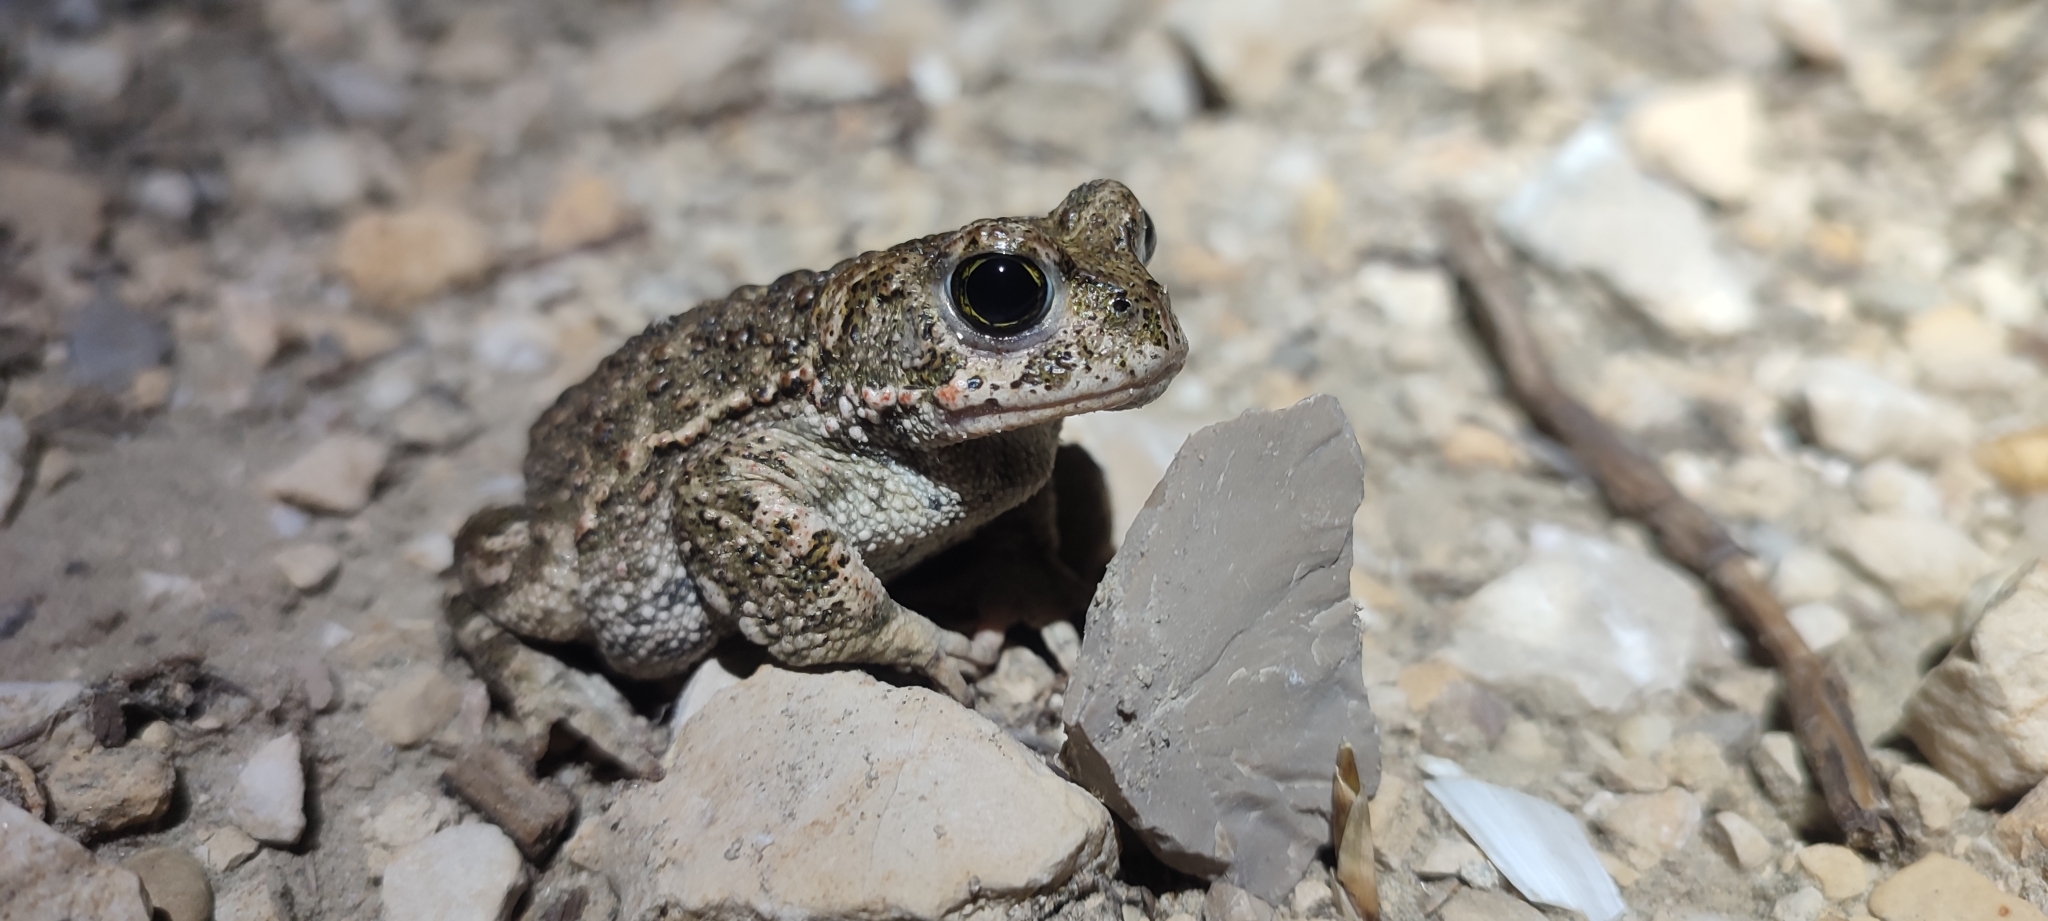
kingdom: Animalia
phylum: Chordata
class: Amphibia
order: Anura
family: Bufonidae
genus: Epidalea
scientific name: Epidalea calamita
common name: Natterjack toad
